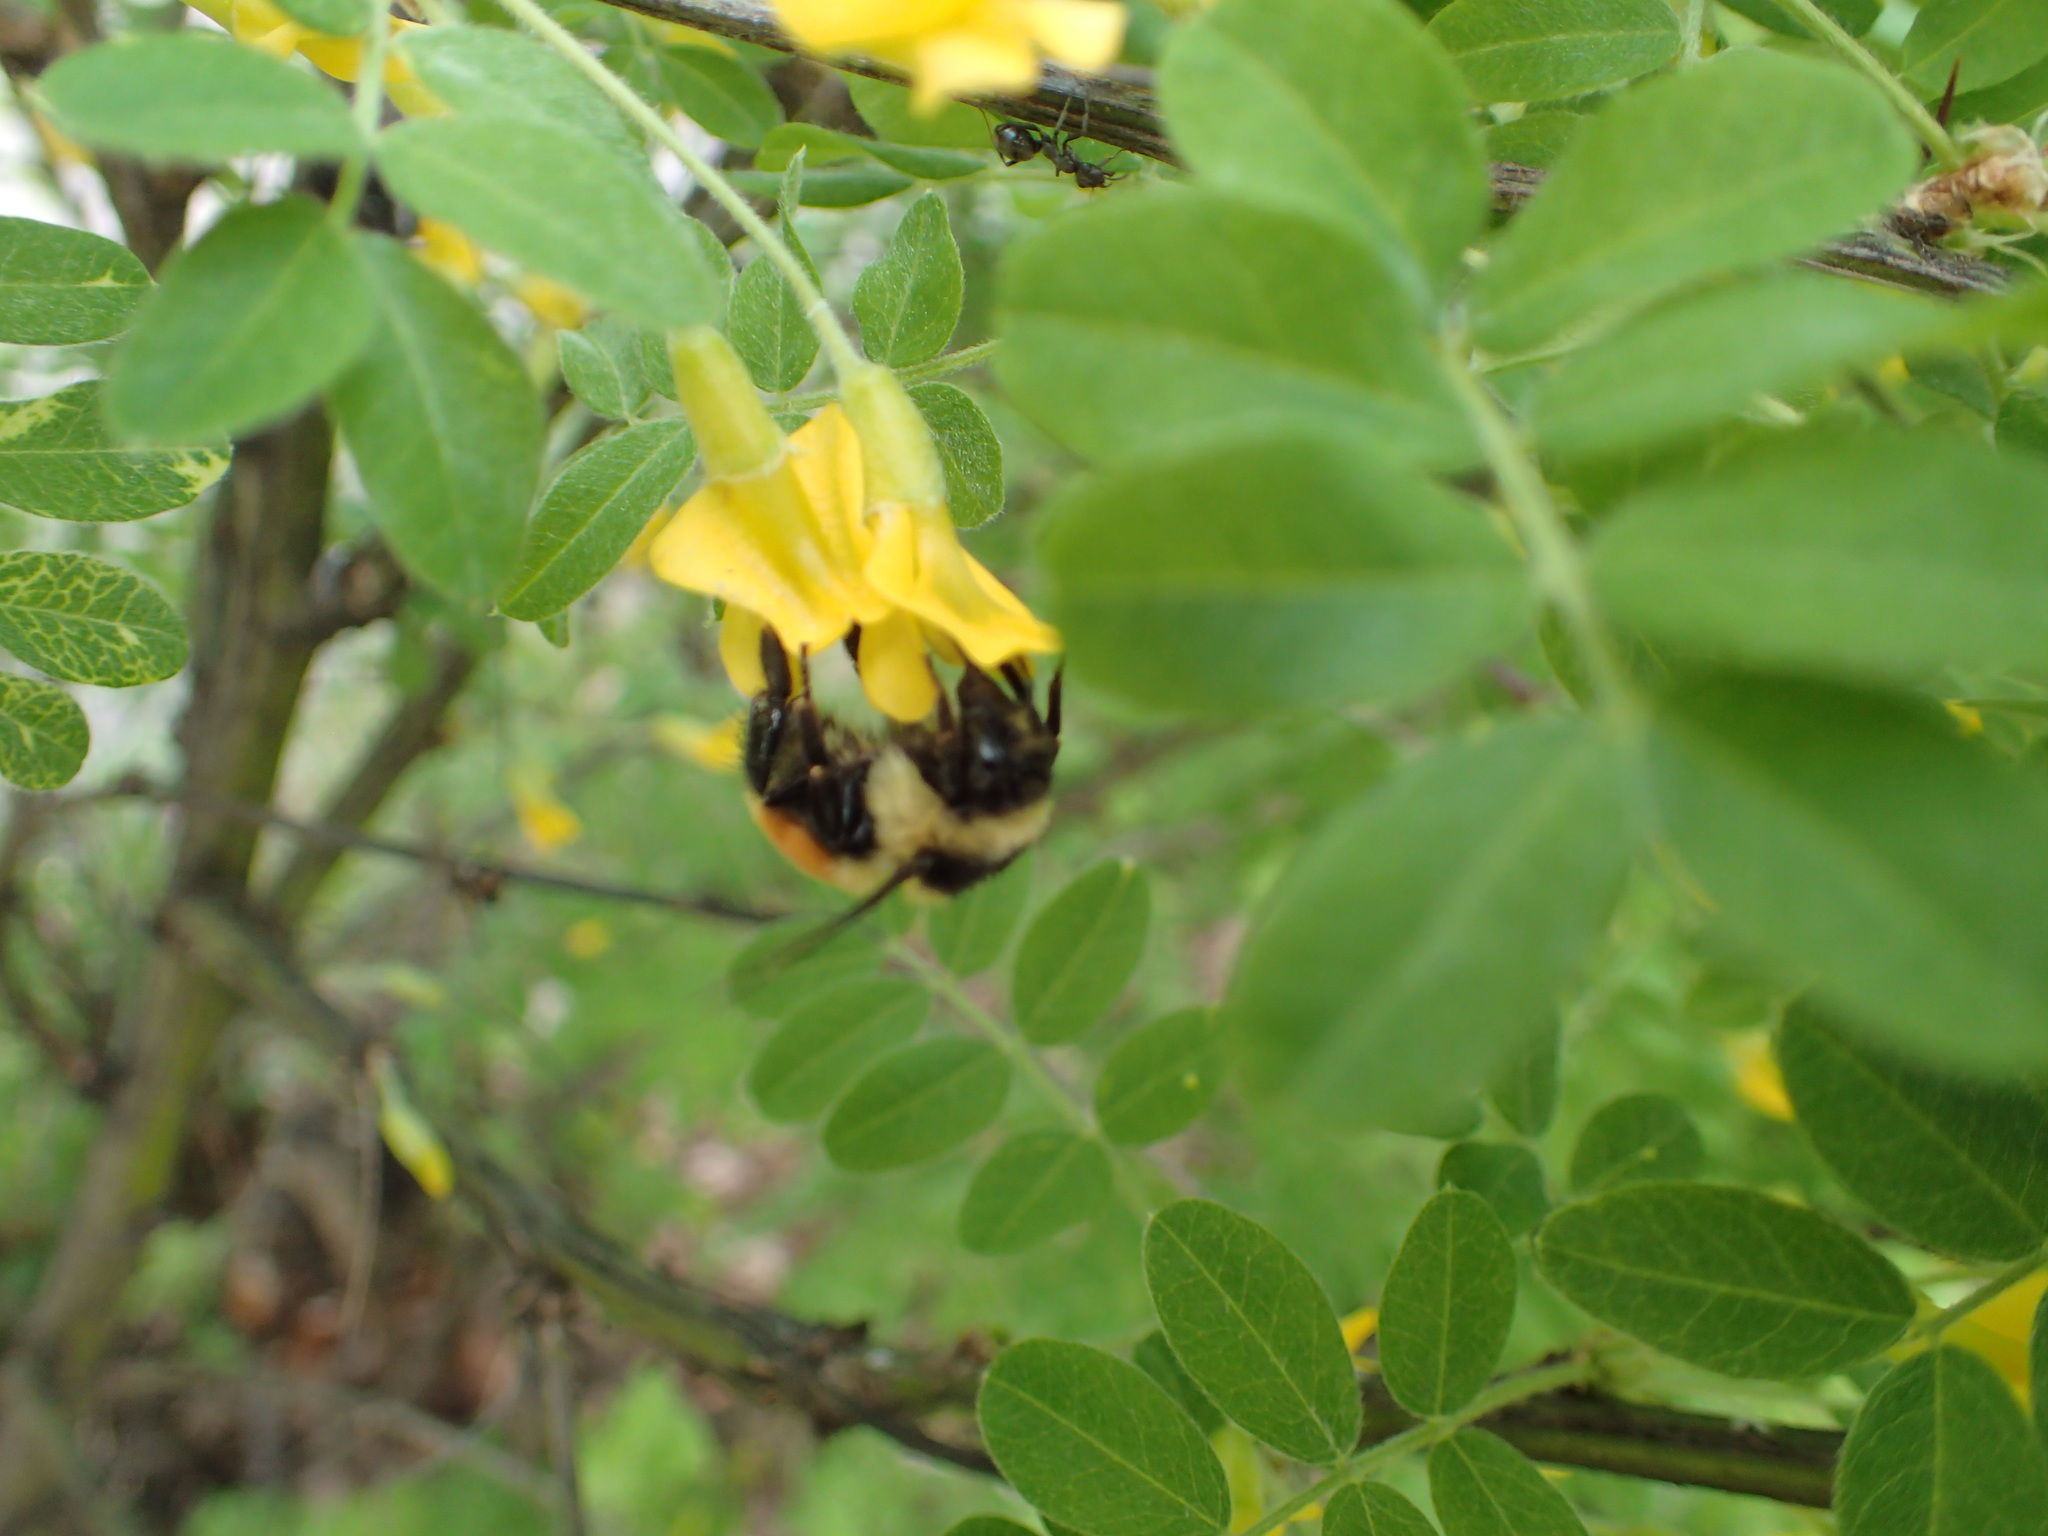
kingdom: Animalia
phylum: Arthropoda
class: Insecta
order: Hymenoptera
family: Apidae
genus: Bombus
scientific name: Bombus ternarius
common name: Tri-colored bumble bee
